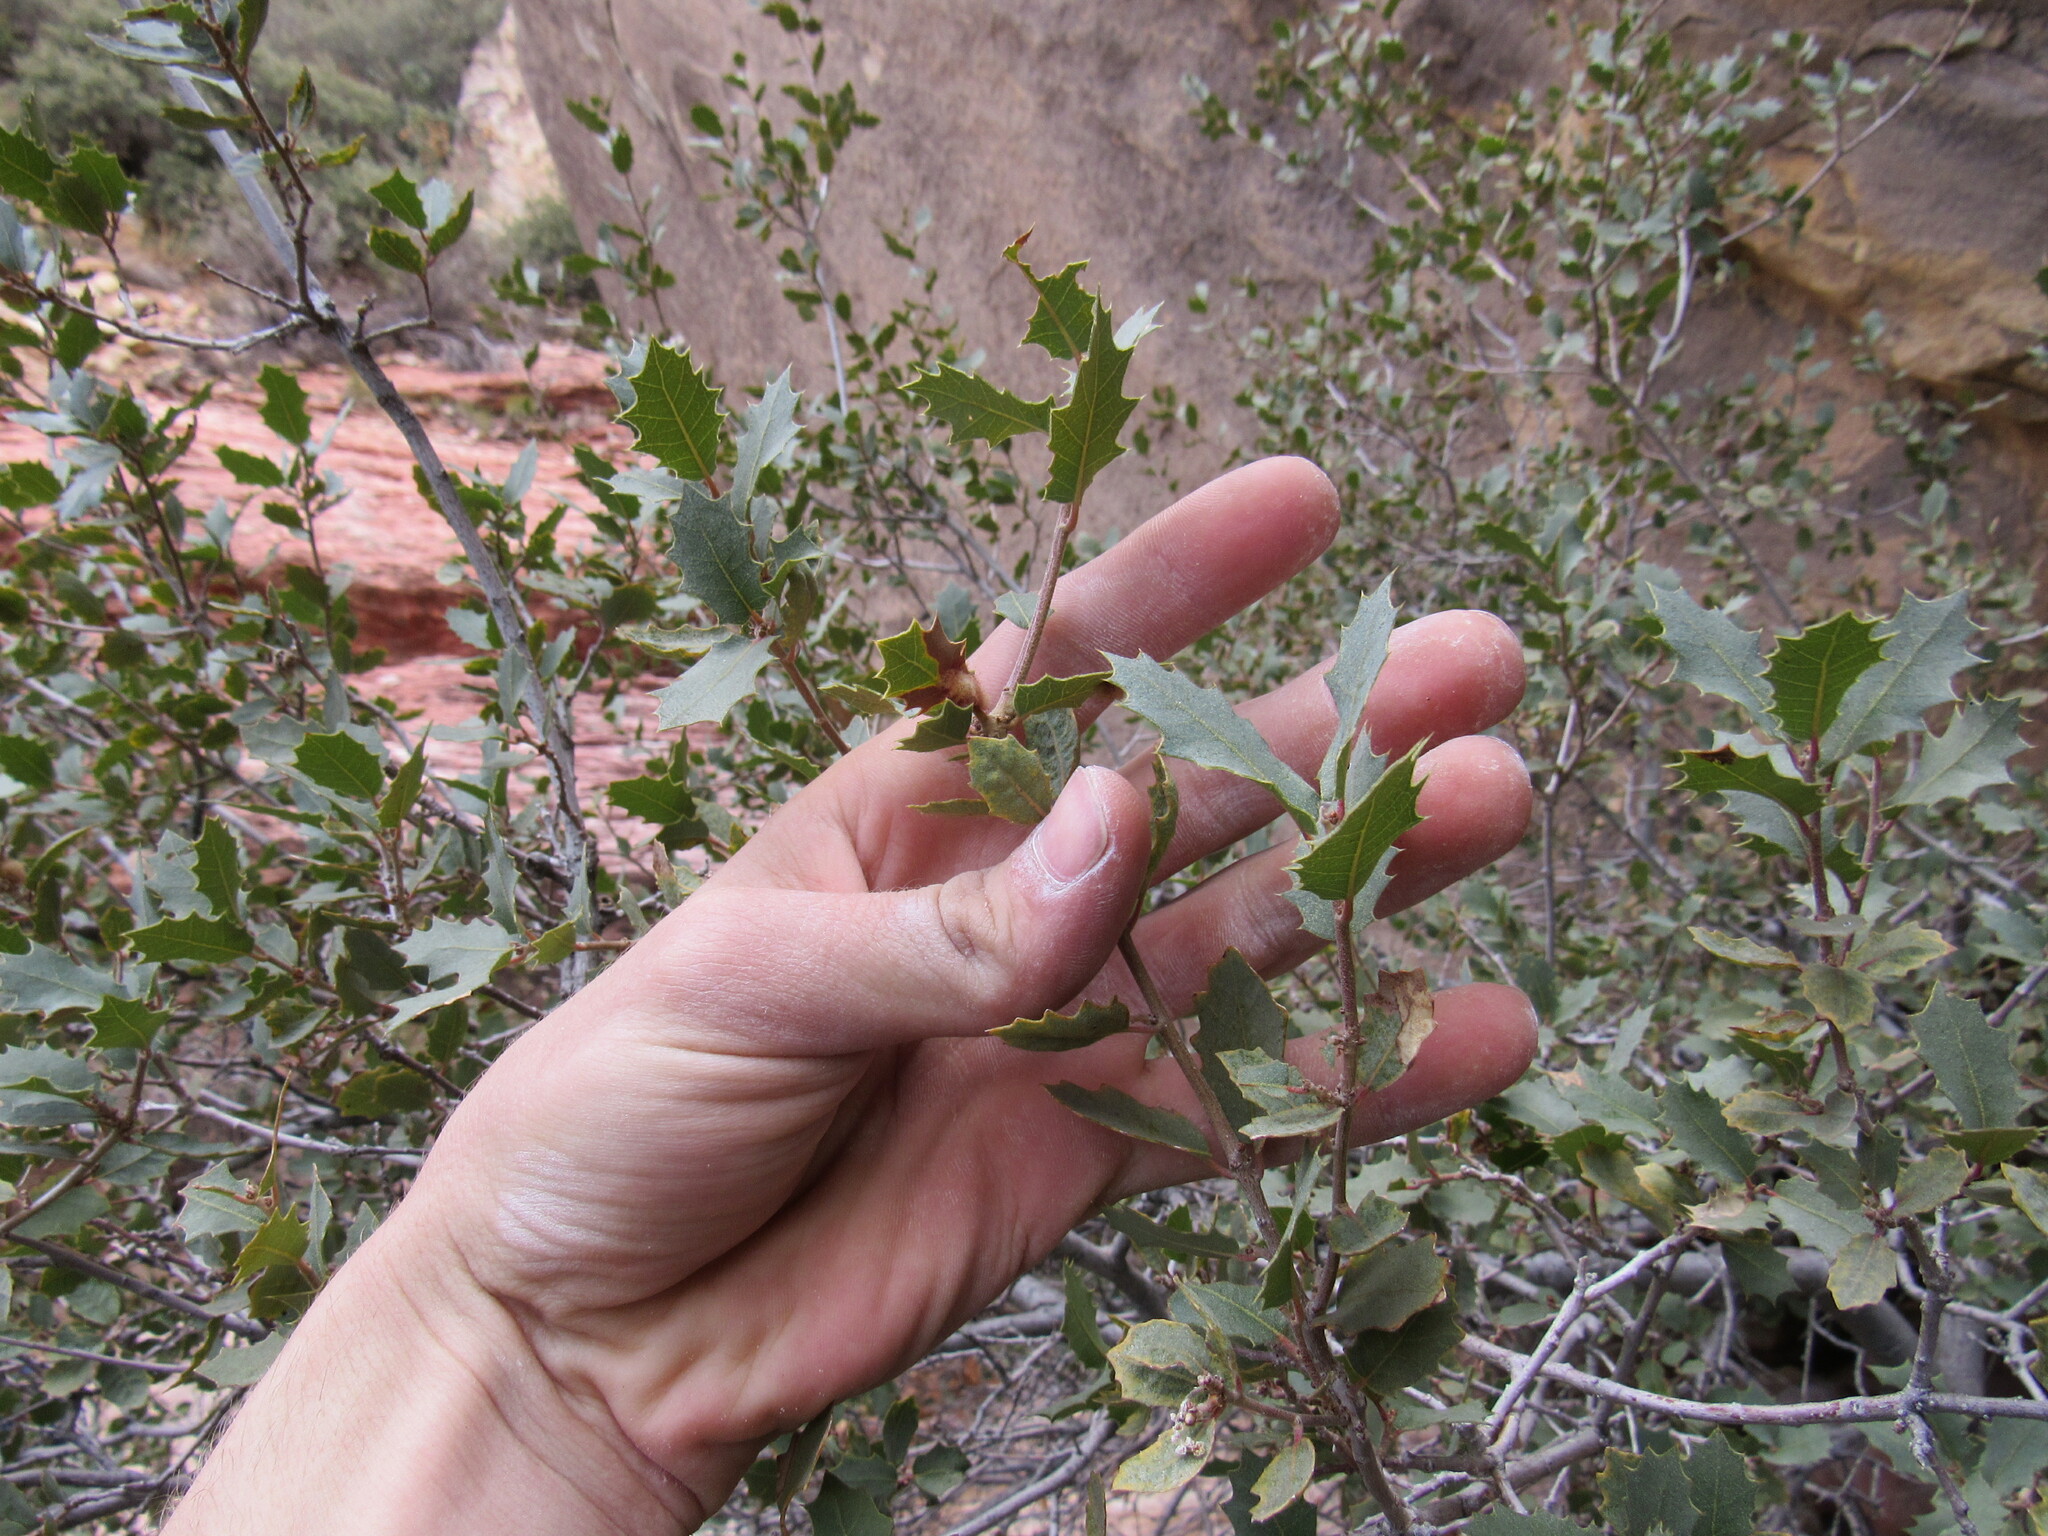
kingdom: Plantae
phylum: Tracheophyta
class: Magnoliopsida
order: Fagales
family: Fagaceae
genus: Quercus
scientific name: Quercus turbinella
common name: Sonoran scrub oak
